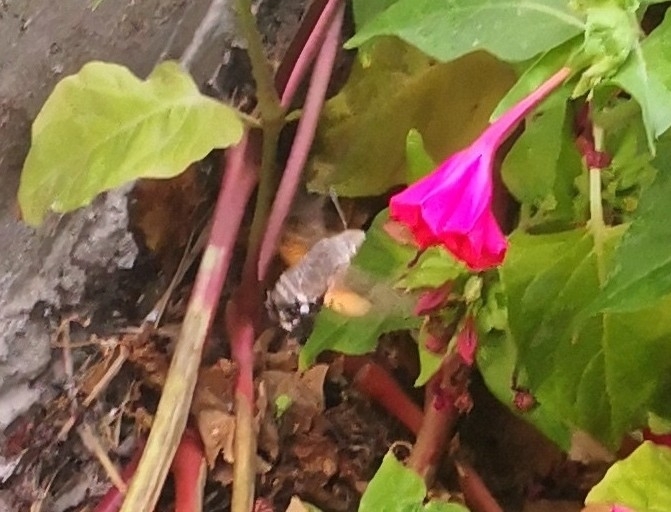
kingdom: Animalia
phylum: Arthropoda
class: Insecta
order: Lepidoptera
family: Sphingidae
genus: Macroglossum
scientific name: Macroglossum stellatarum
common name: Humming-bird hawk-moth
